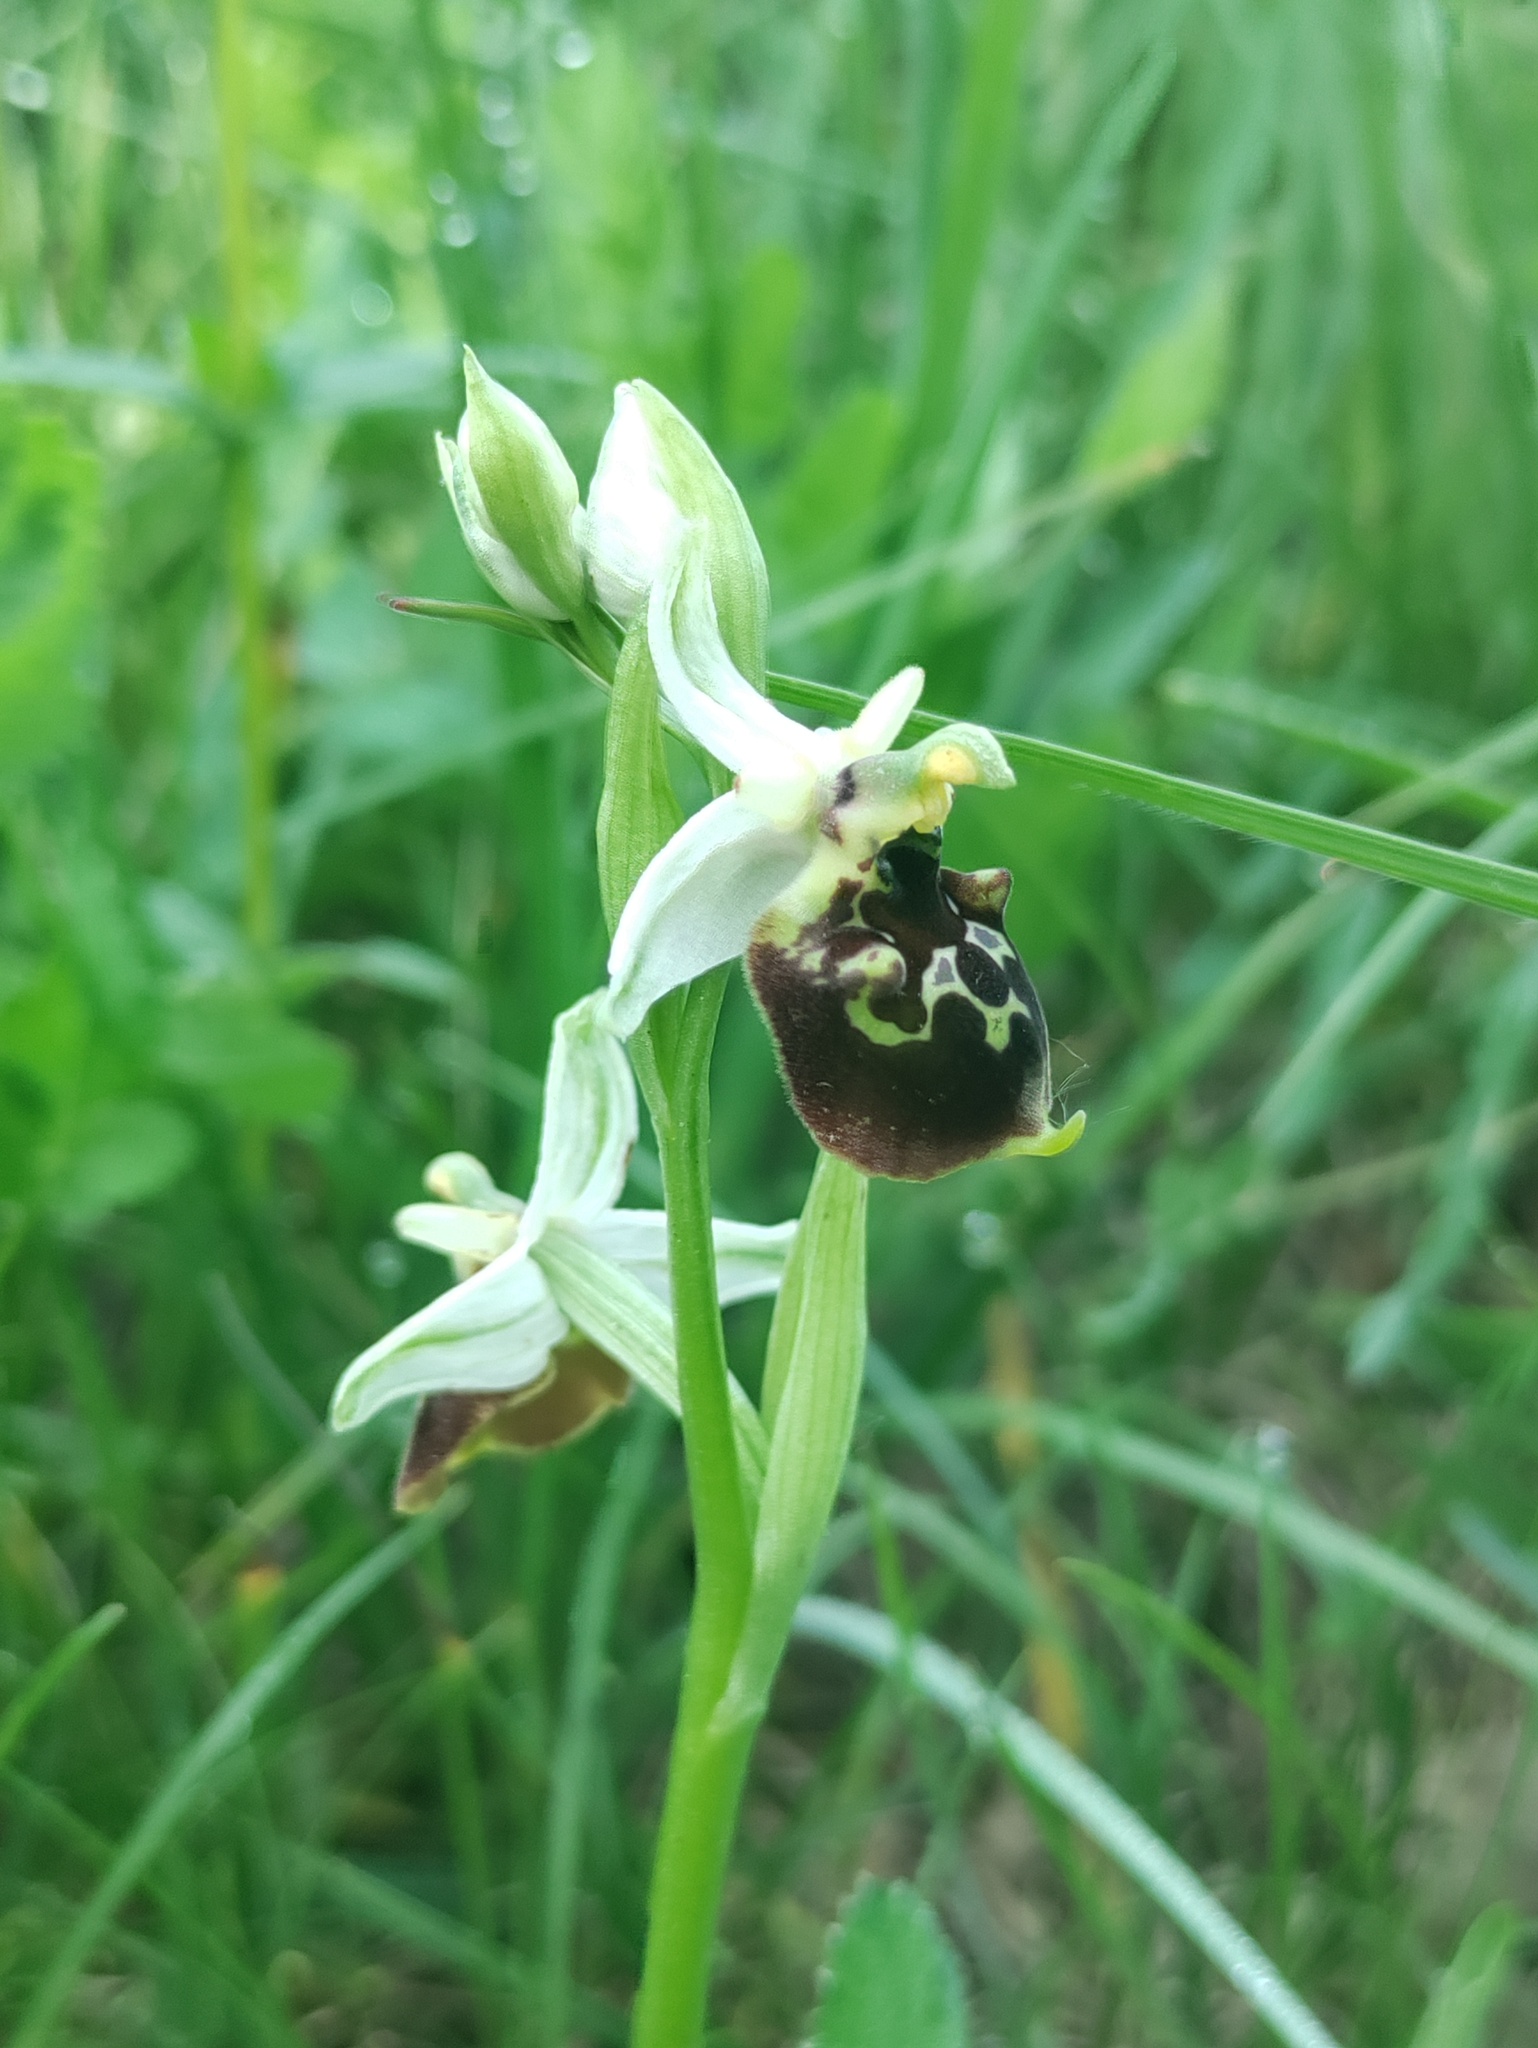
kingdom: Plantae
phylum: Tracheophyta
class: Liliopsida
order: Asparagales
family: Orchidaceae
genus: Ophrys
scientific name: Ophrys holosericea
